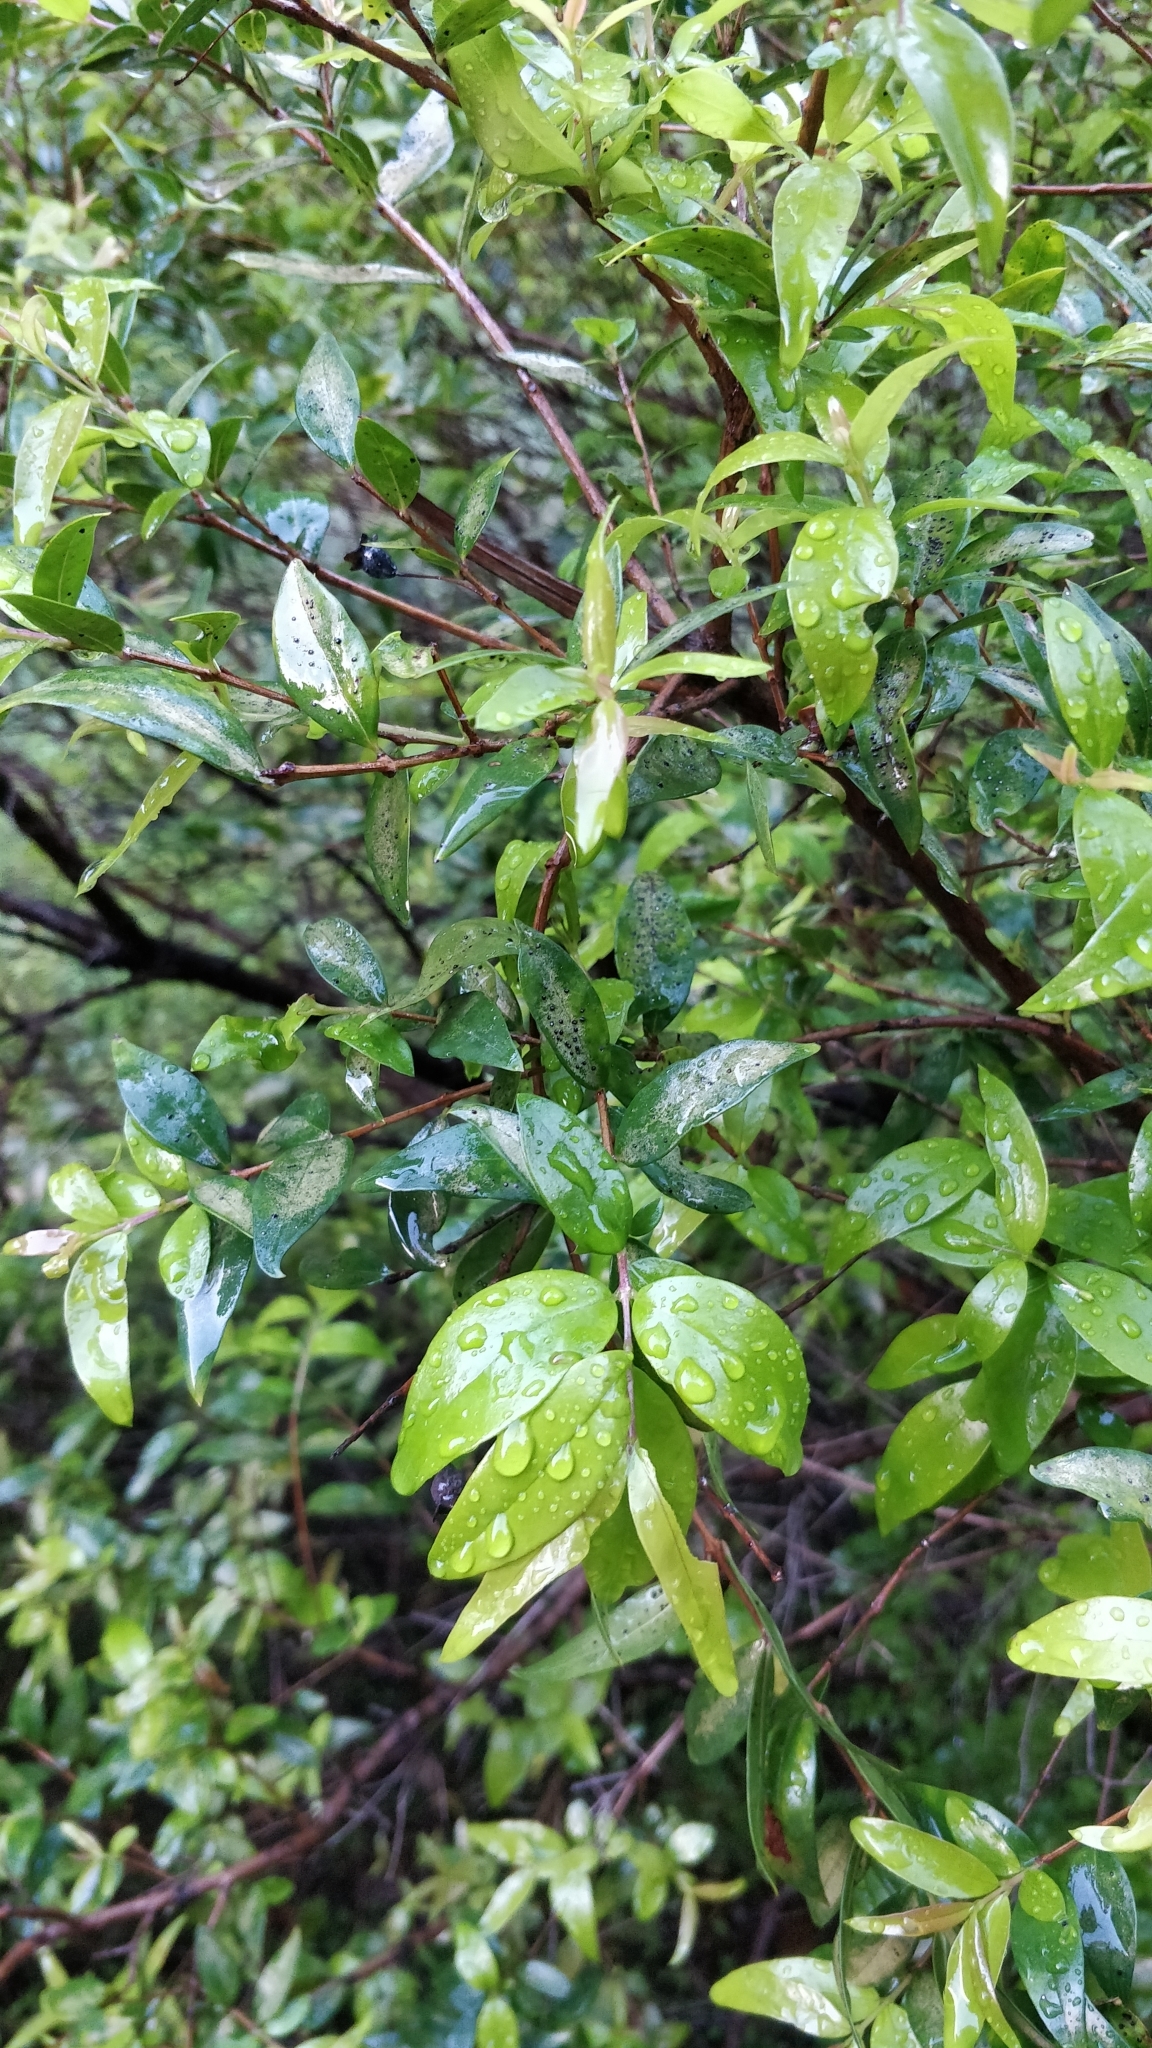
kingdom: Plantae
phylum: Tracheophyta
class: Magnoliopsida
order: Myrtales
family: Myrtaceae
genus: Myrtus
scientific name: Myrtus communis
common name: Myrtle
